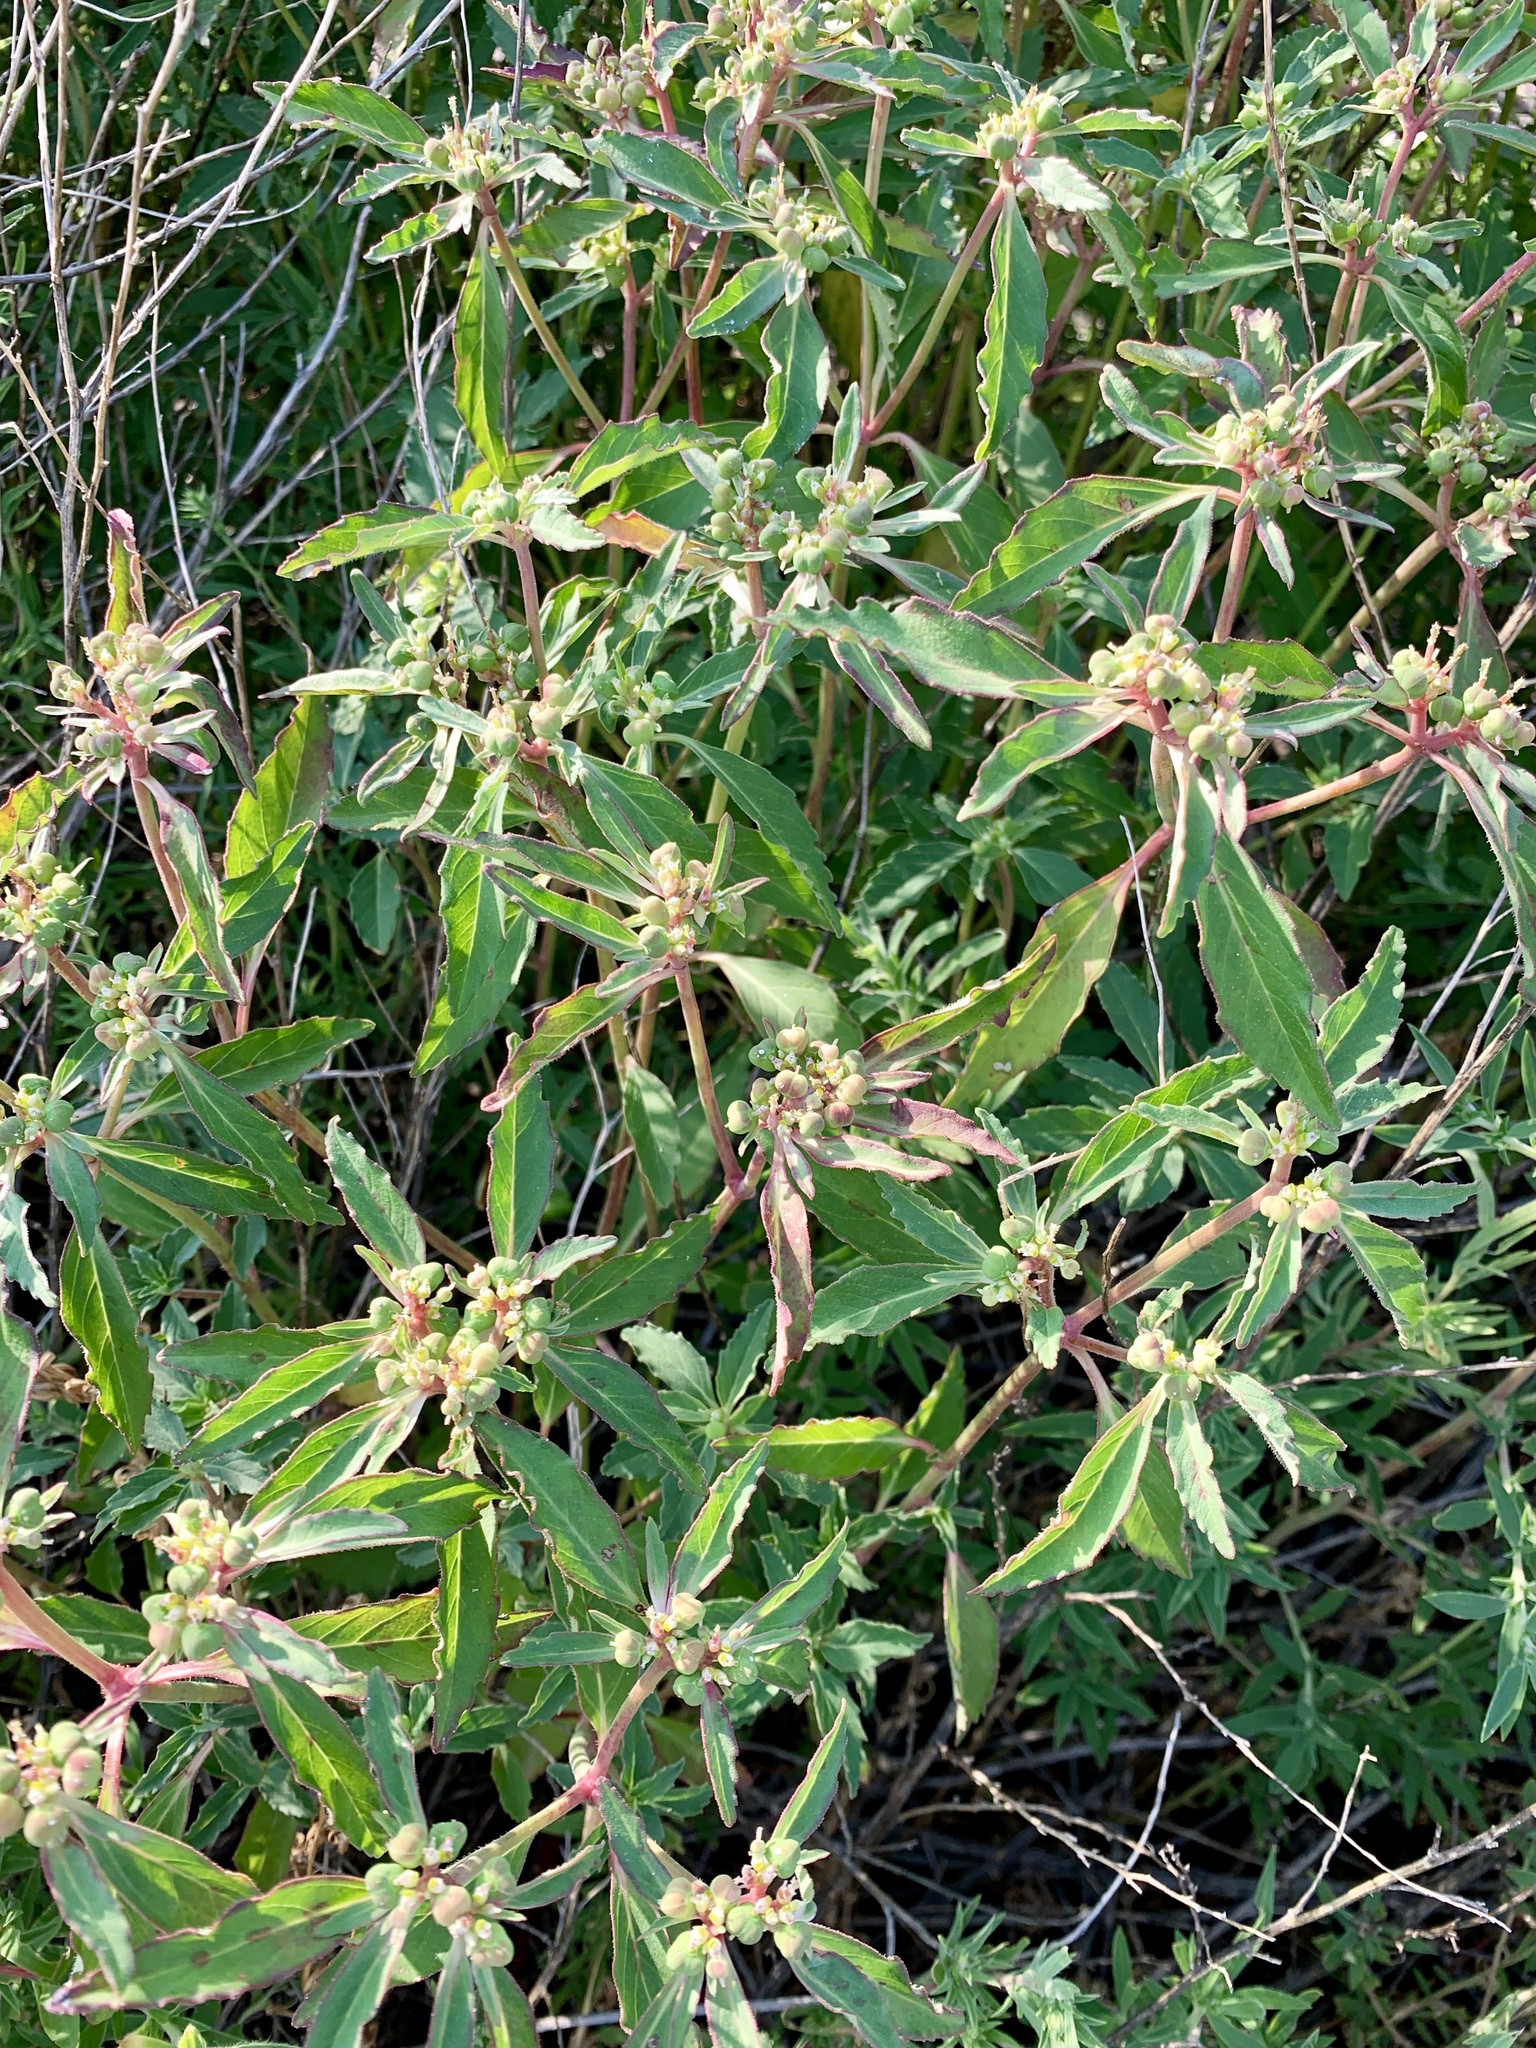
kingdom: Plantae
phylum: Tracheophyta
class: Magnoliopsida
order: Malpighiales
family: Euphorbiaceae
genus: Euphorbia
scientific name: Euphorbia dentata
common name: Dentate spurge
